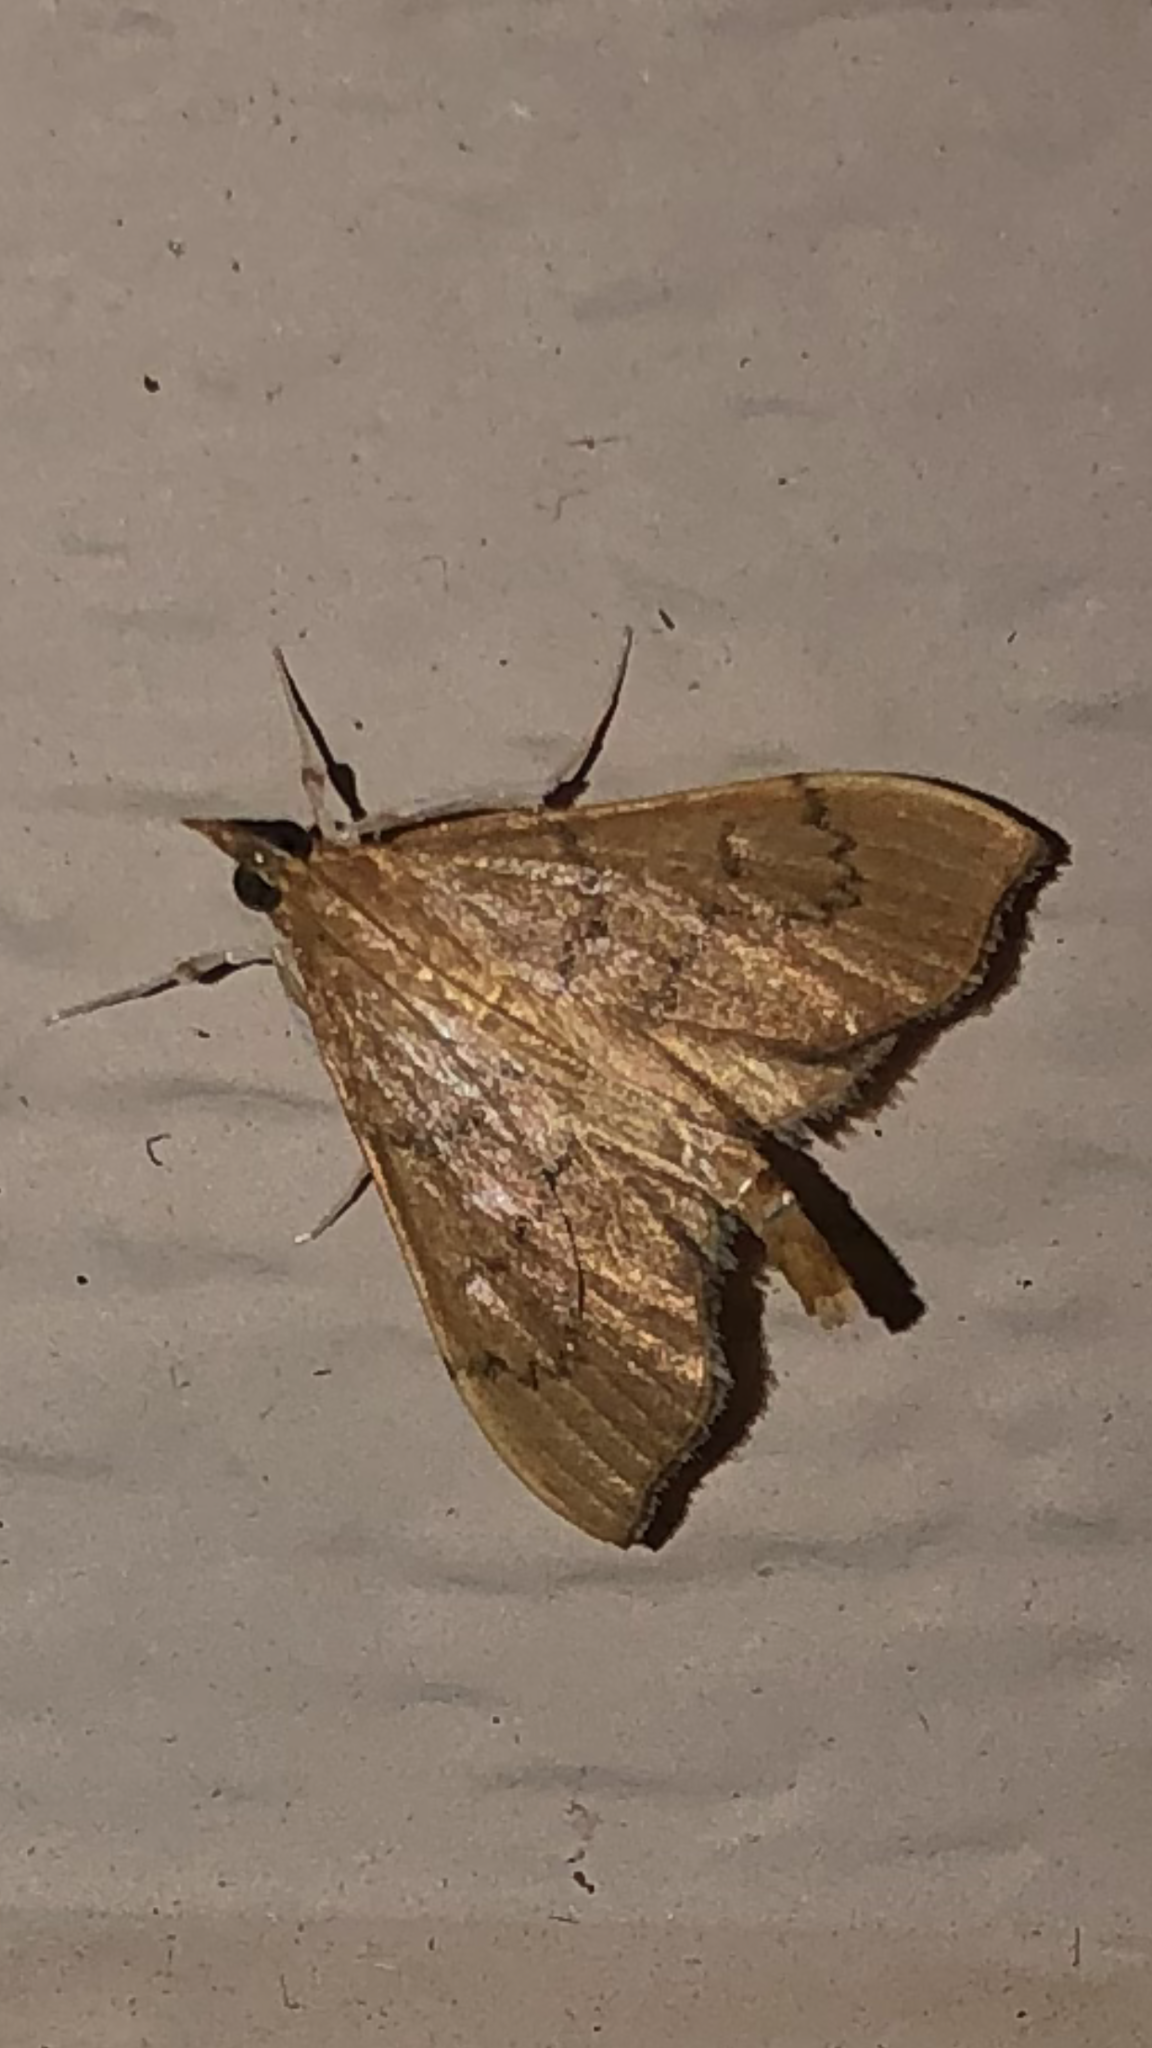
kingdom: Animalia
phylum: Arthropoda
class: Insecta
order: Lepidoptera
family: Crambidae
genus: Sericoplaga
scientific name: Sericoplaga externalis
